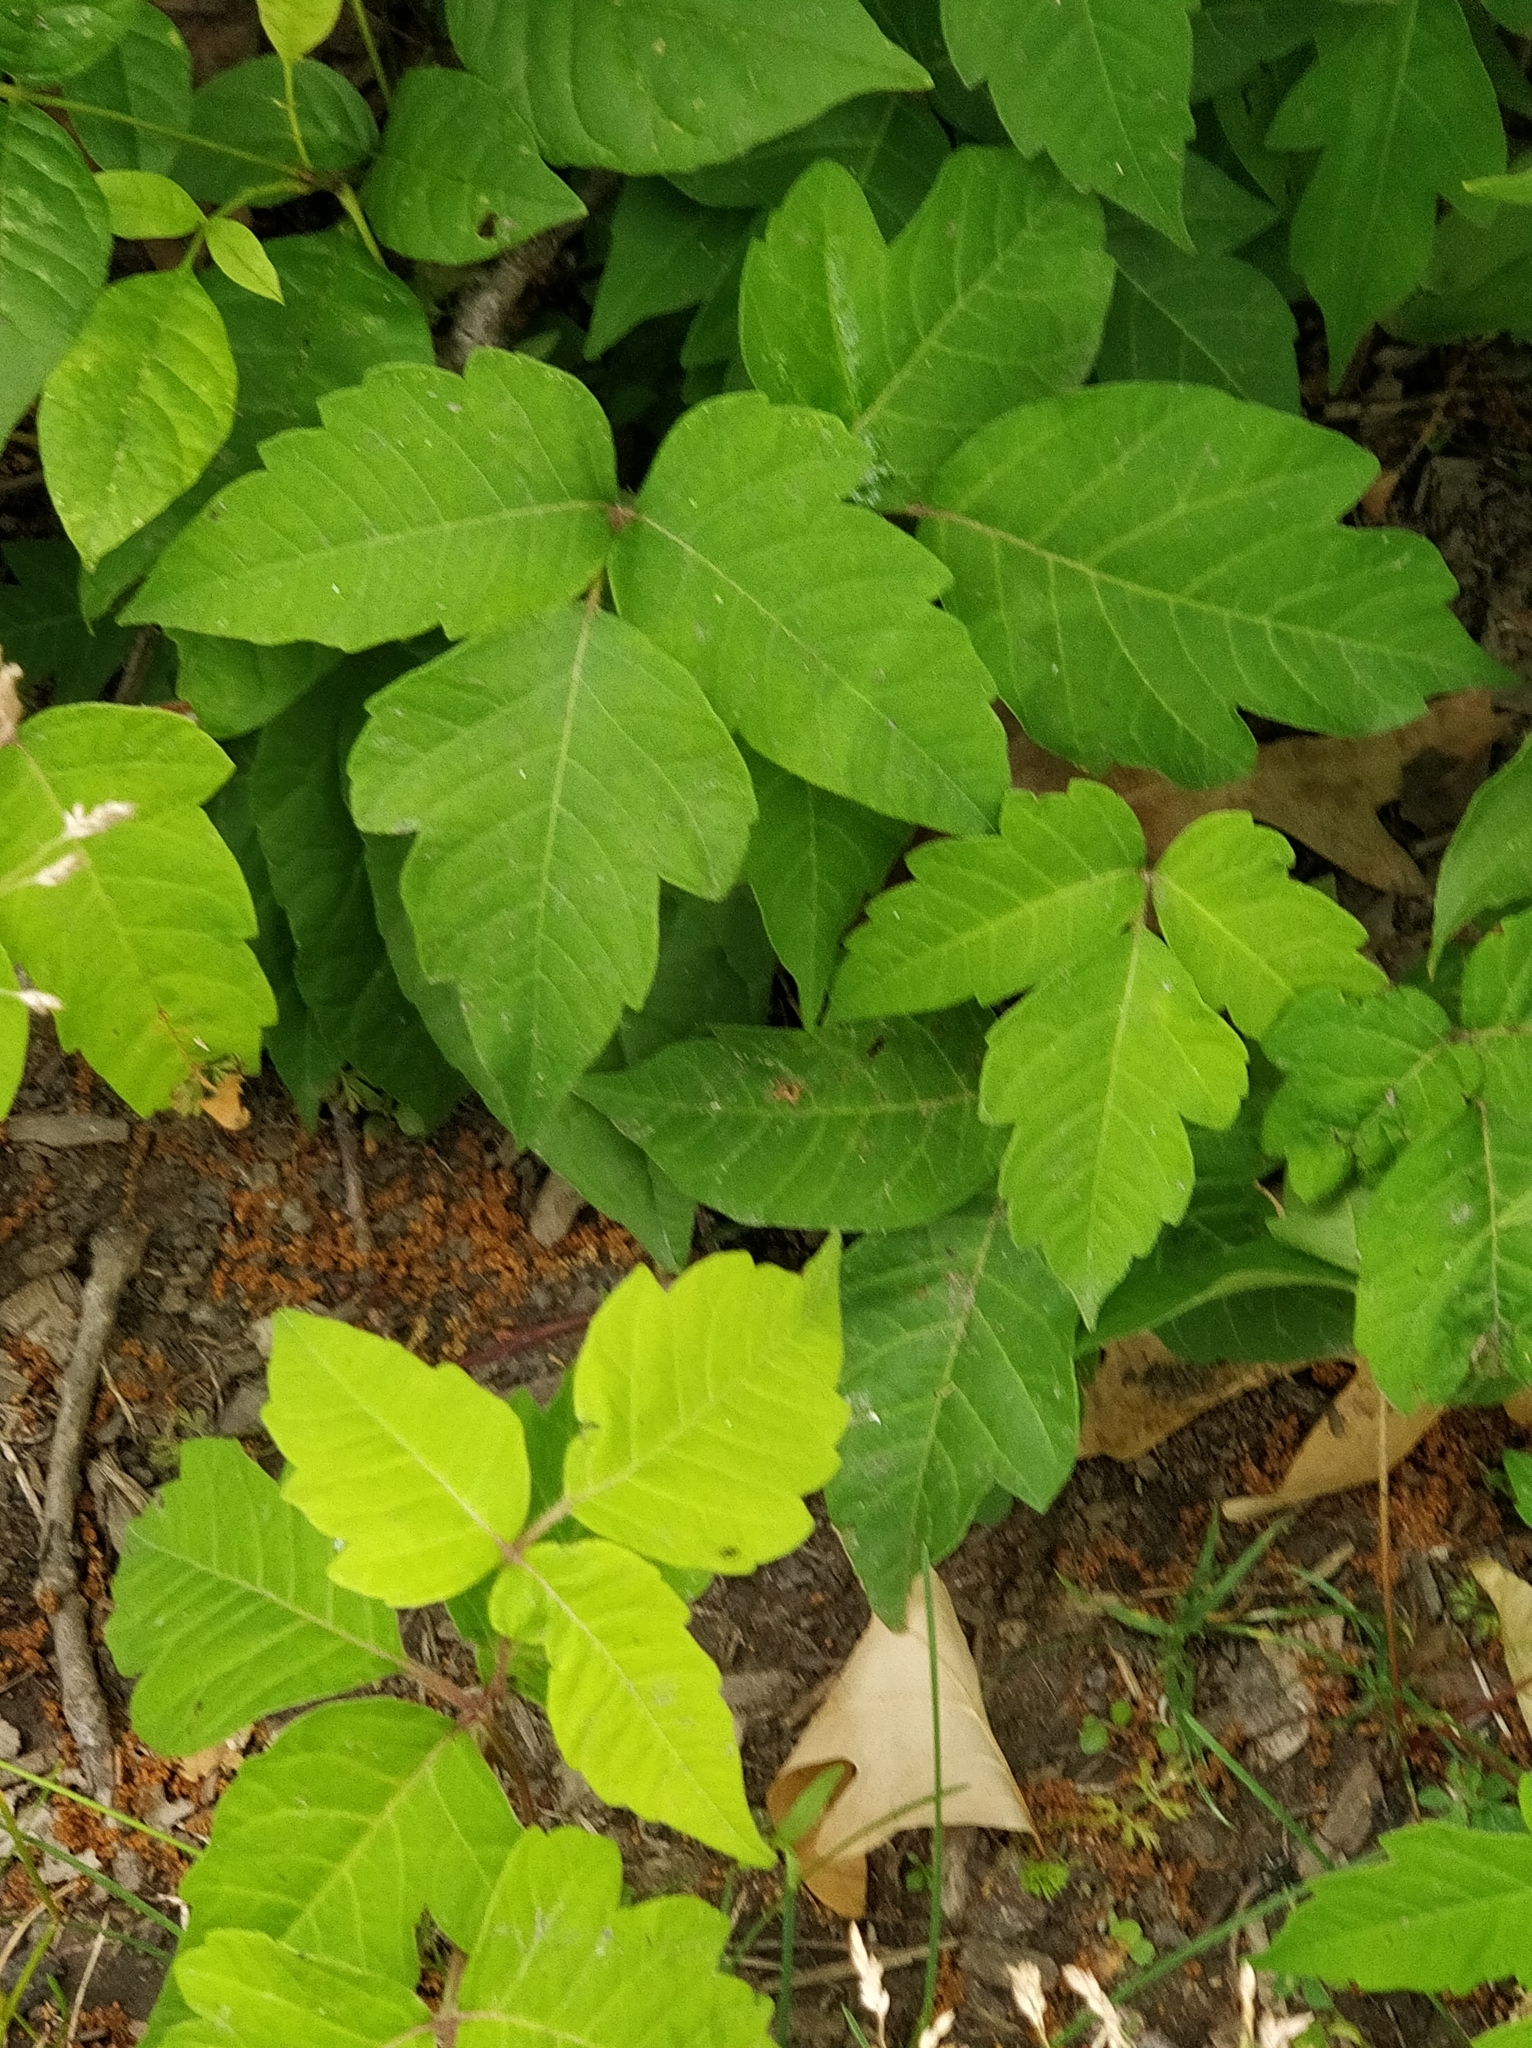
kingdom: Plantae
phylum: Tracheophyta
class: Magnoliopsida
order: Sapindales
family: Anacardiaceae
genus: Toxicodendron
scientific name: Toxicodendron radicans
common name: Poison ivy
